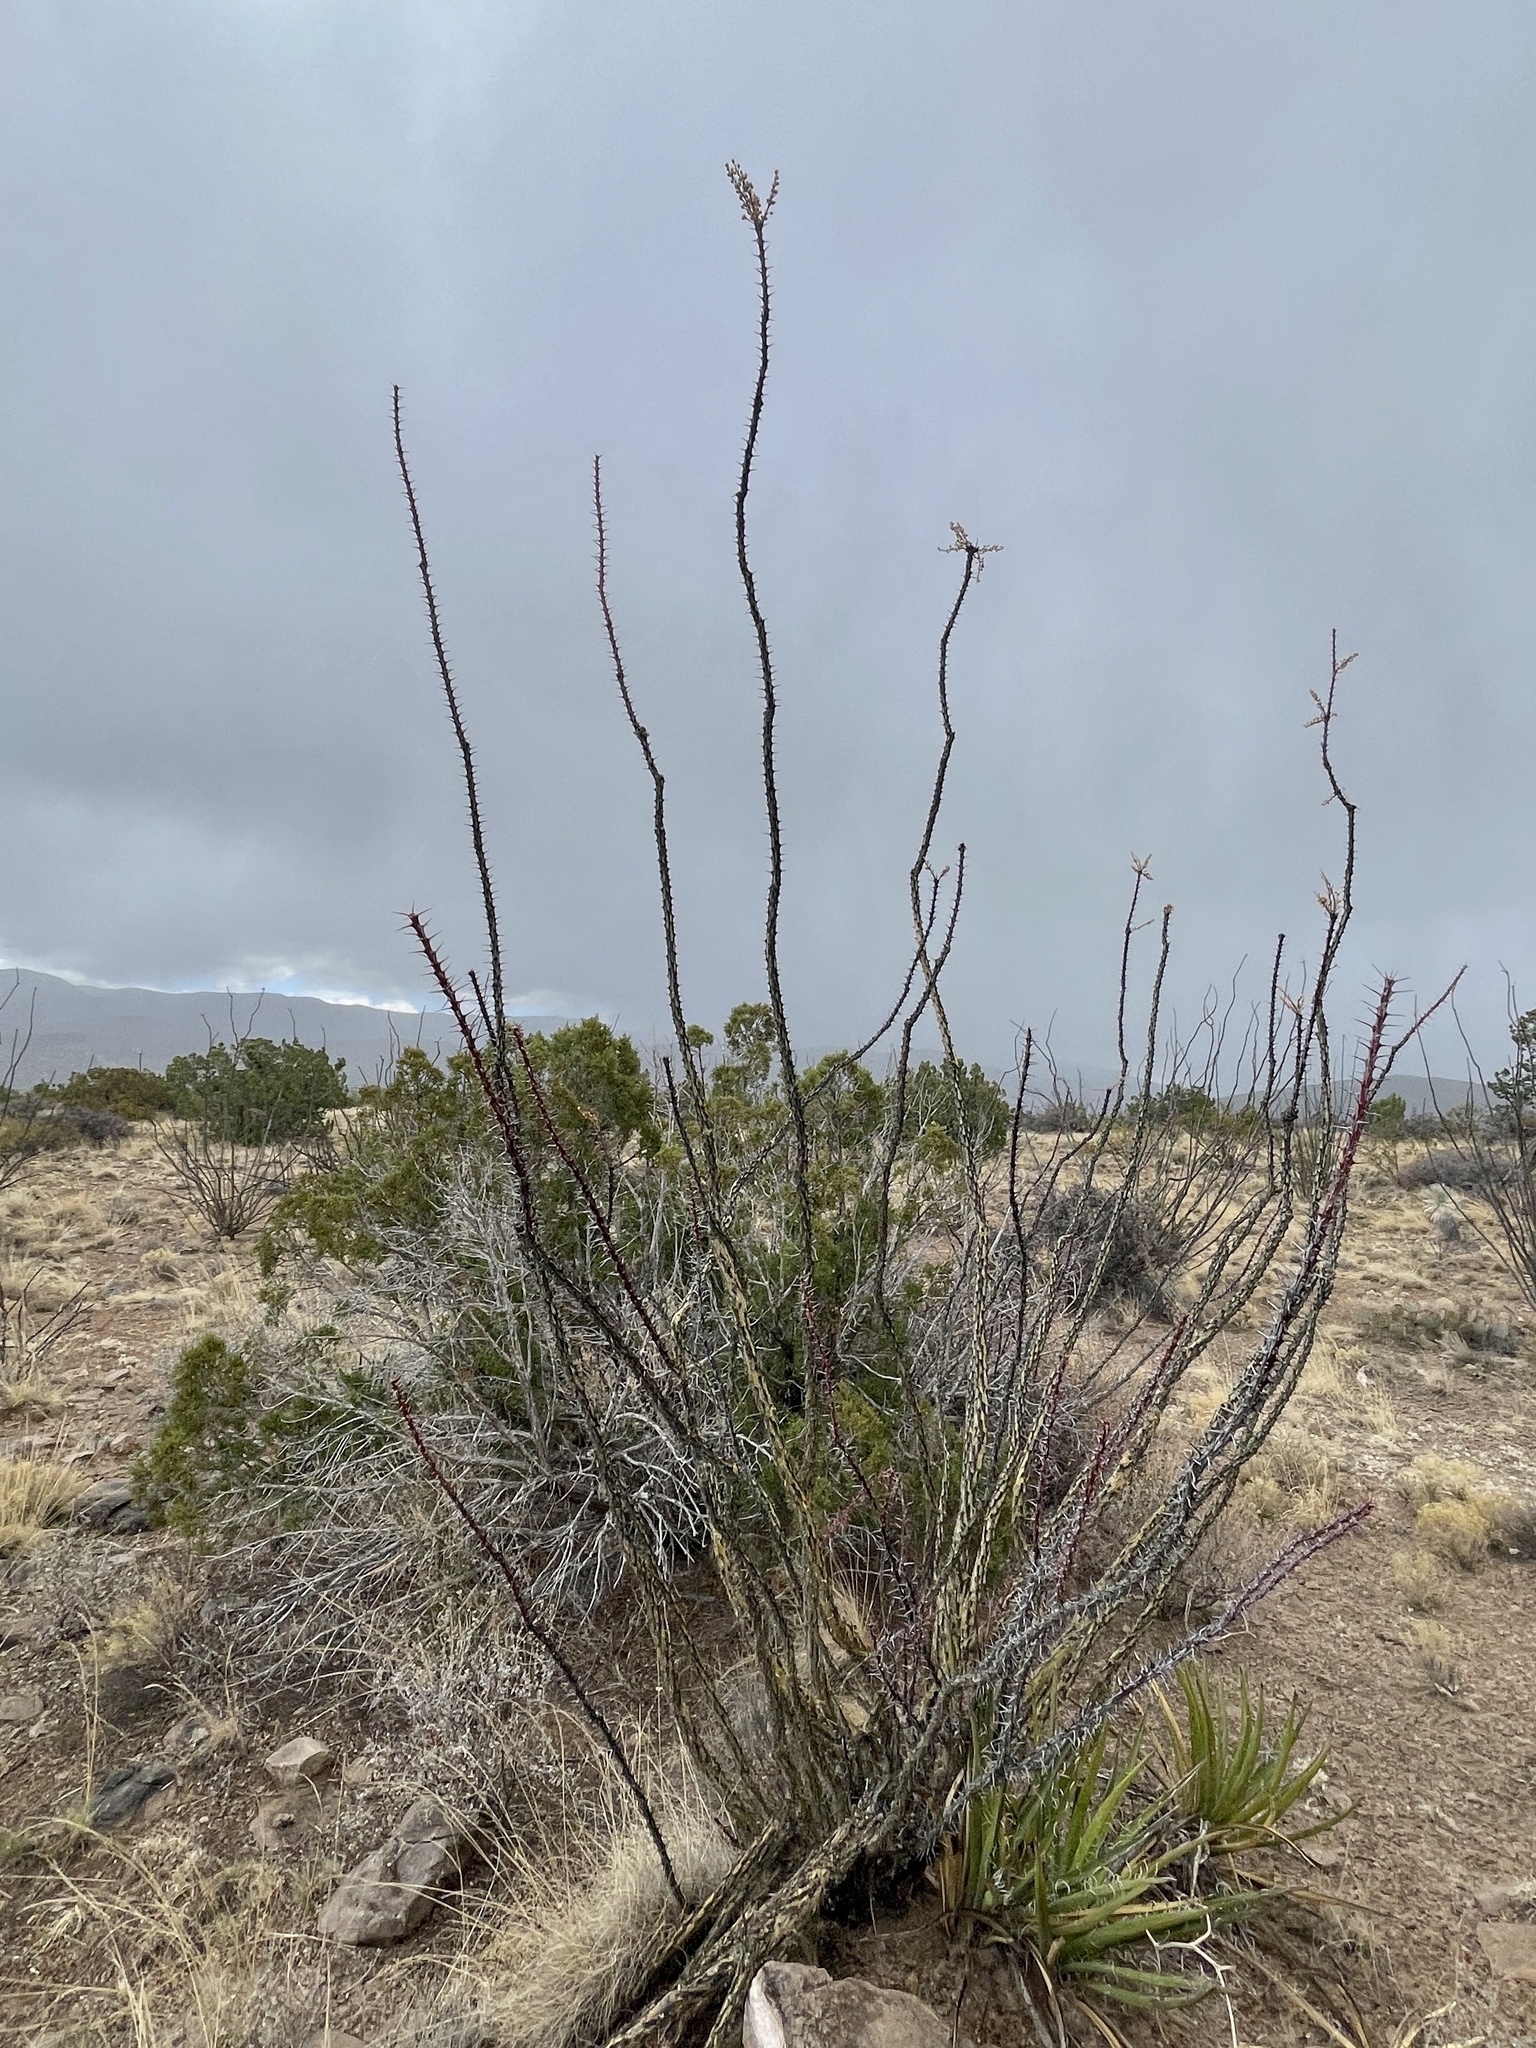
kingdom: Plantae
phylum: Tracheophyta
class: Magnoliopsida
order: Ericales
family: Fouquieriaceae
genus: Fouquieria
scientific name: Fouquieria splendens
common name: Vine-cactus
